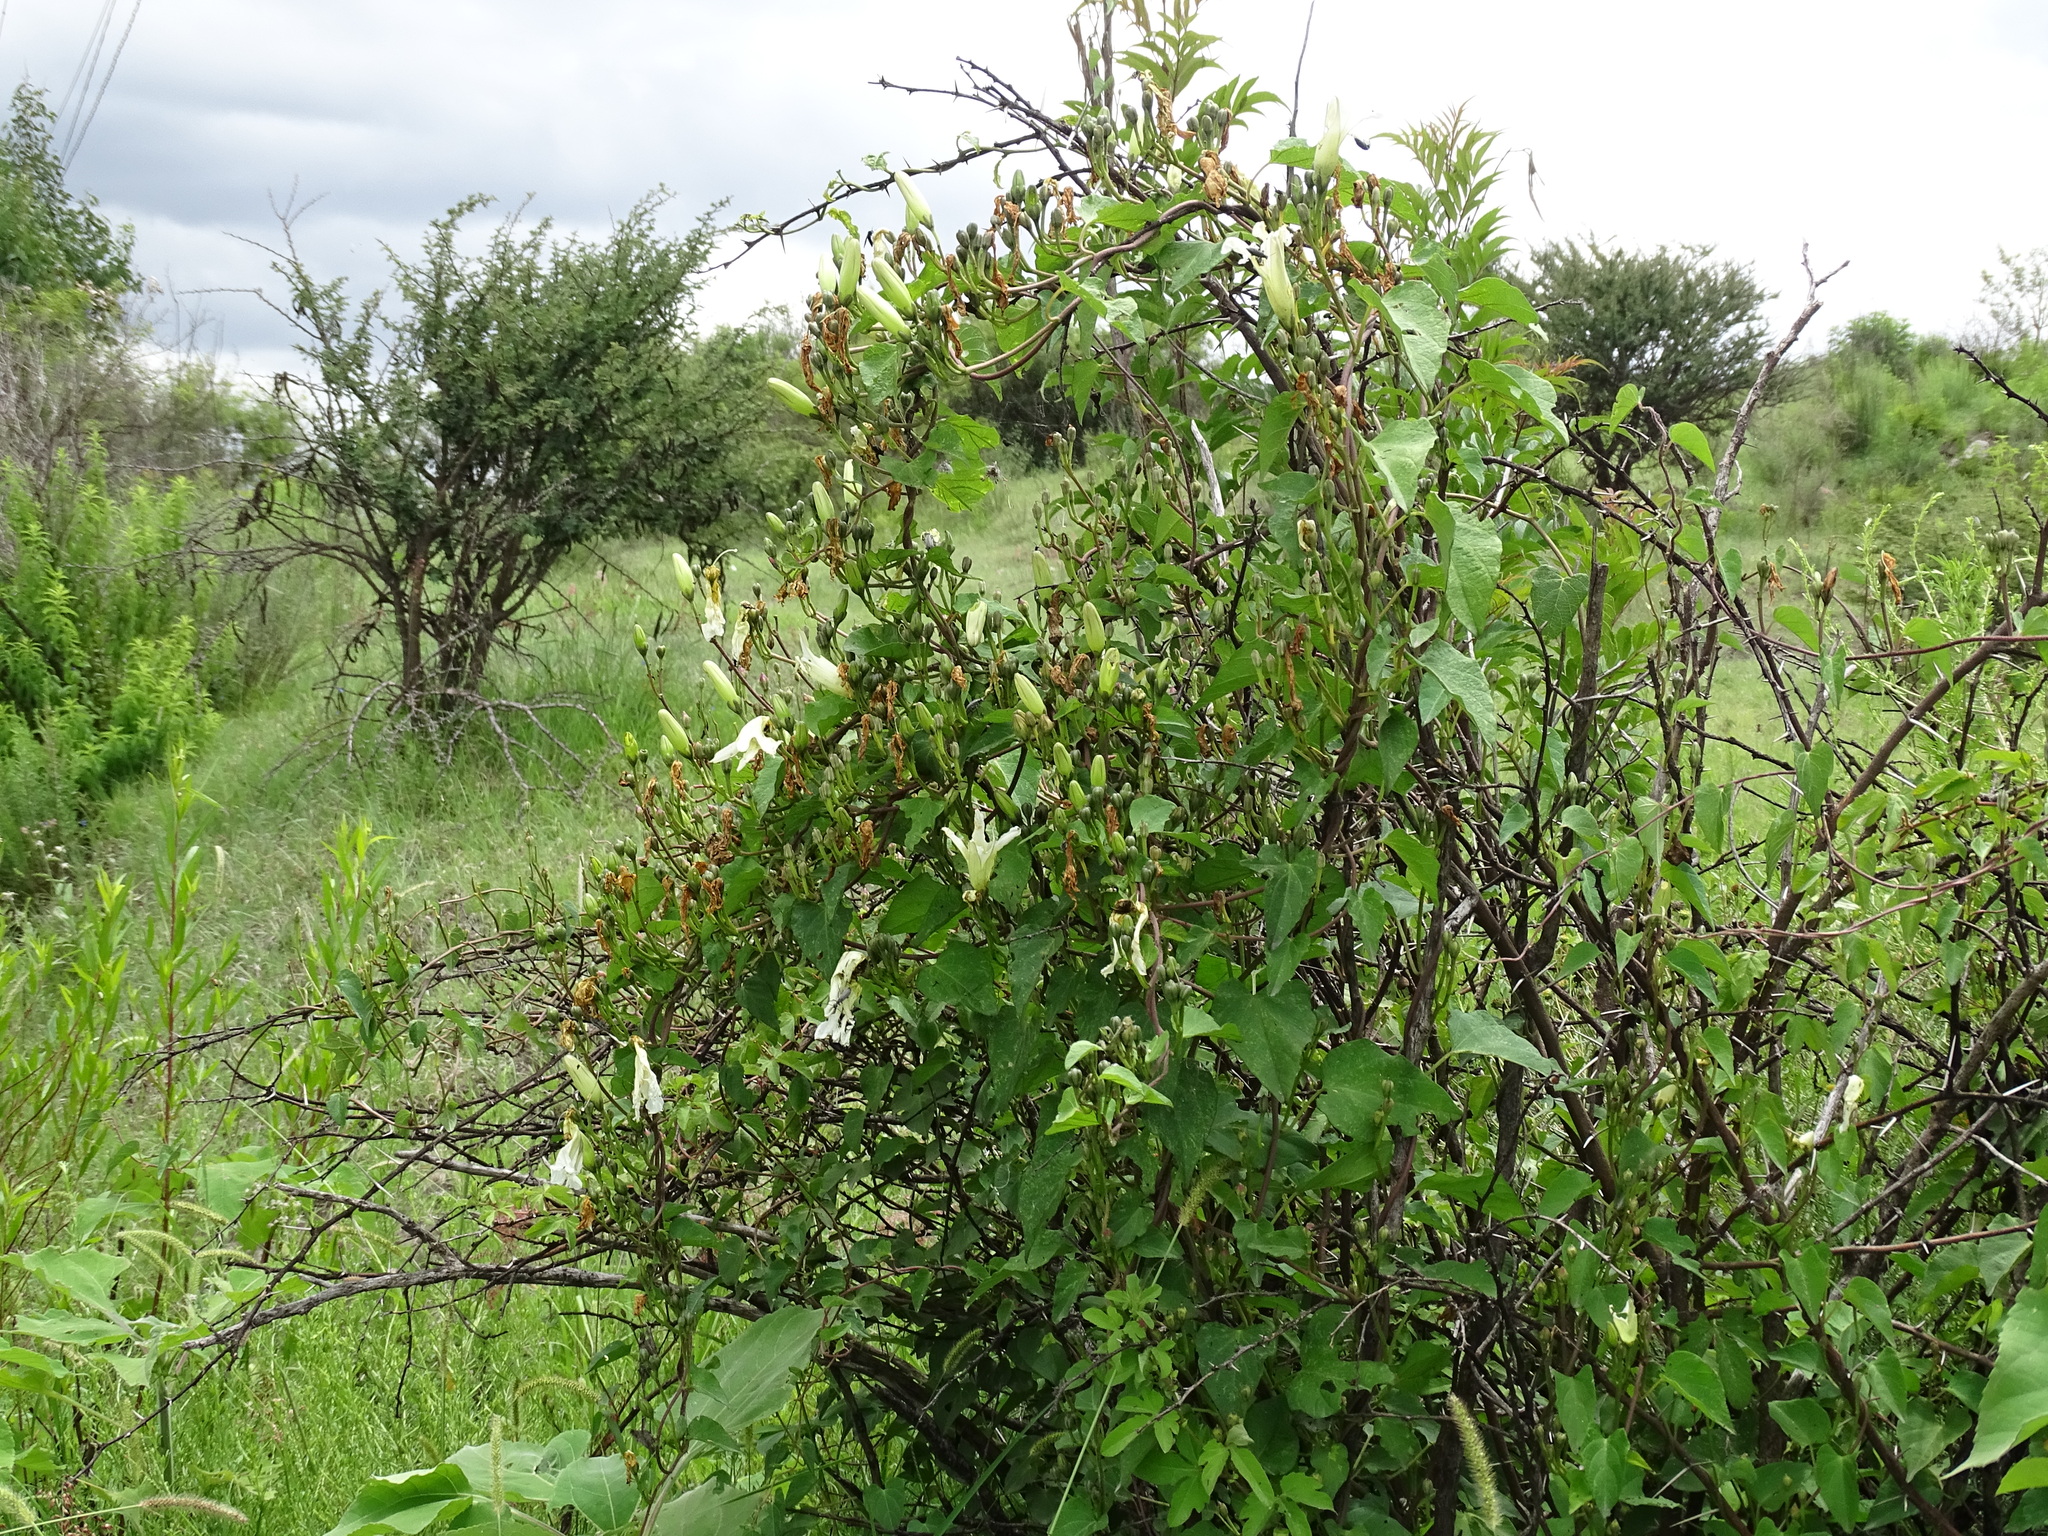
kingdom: Plantae
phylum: Tracheophyta
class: Magnoliopsida
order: Solanales
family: Convolvulaceae
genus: Ipomoea
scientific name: Ipomoea proxima
